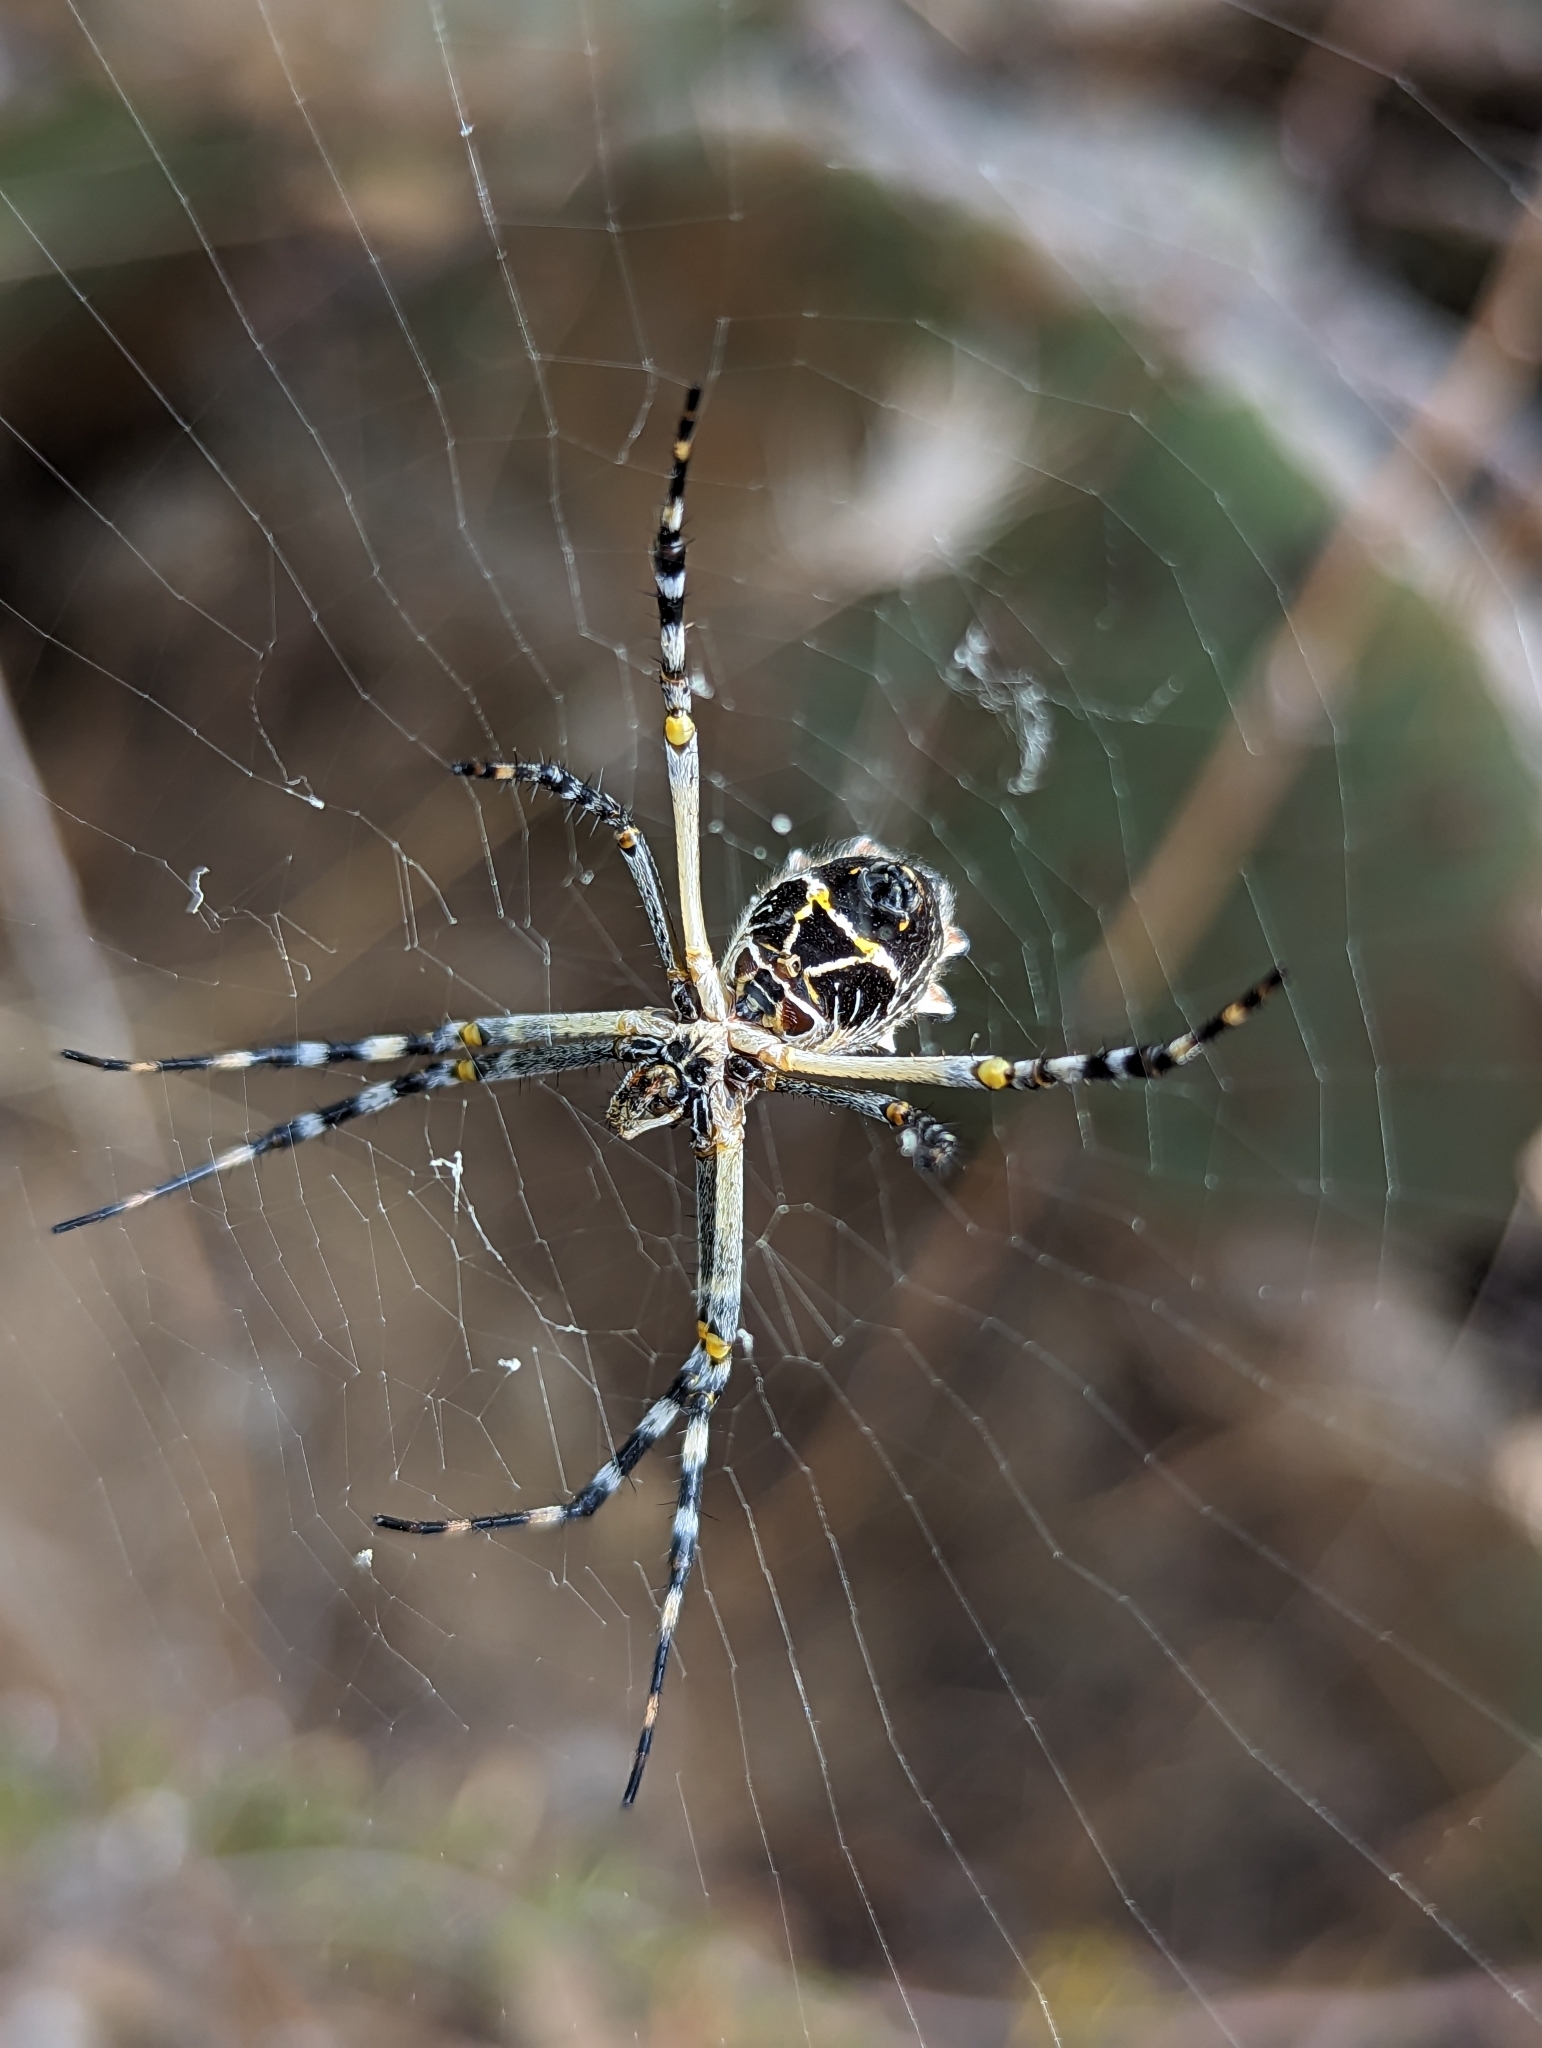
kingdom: Animalia
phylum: Arthropoda
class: Arachnida
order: Araneae
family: Araneidae
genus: Argiope
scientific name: Argiope argentata
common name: Orb weavers
